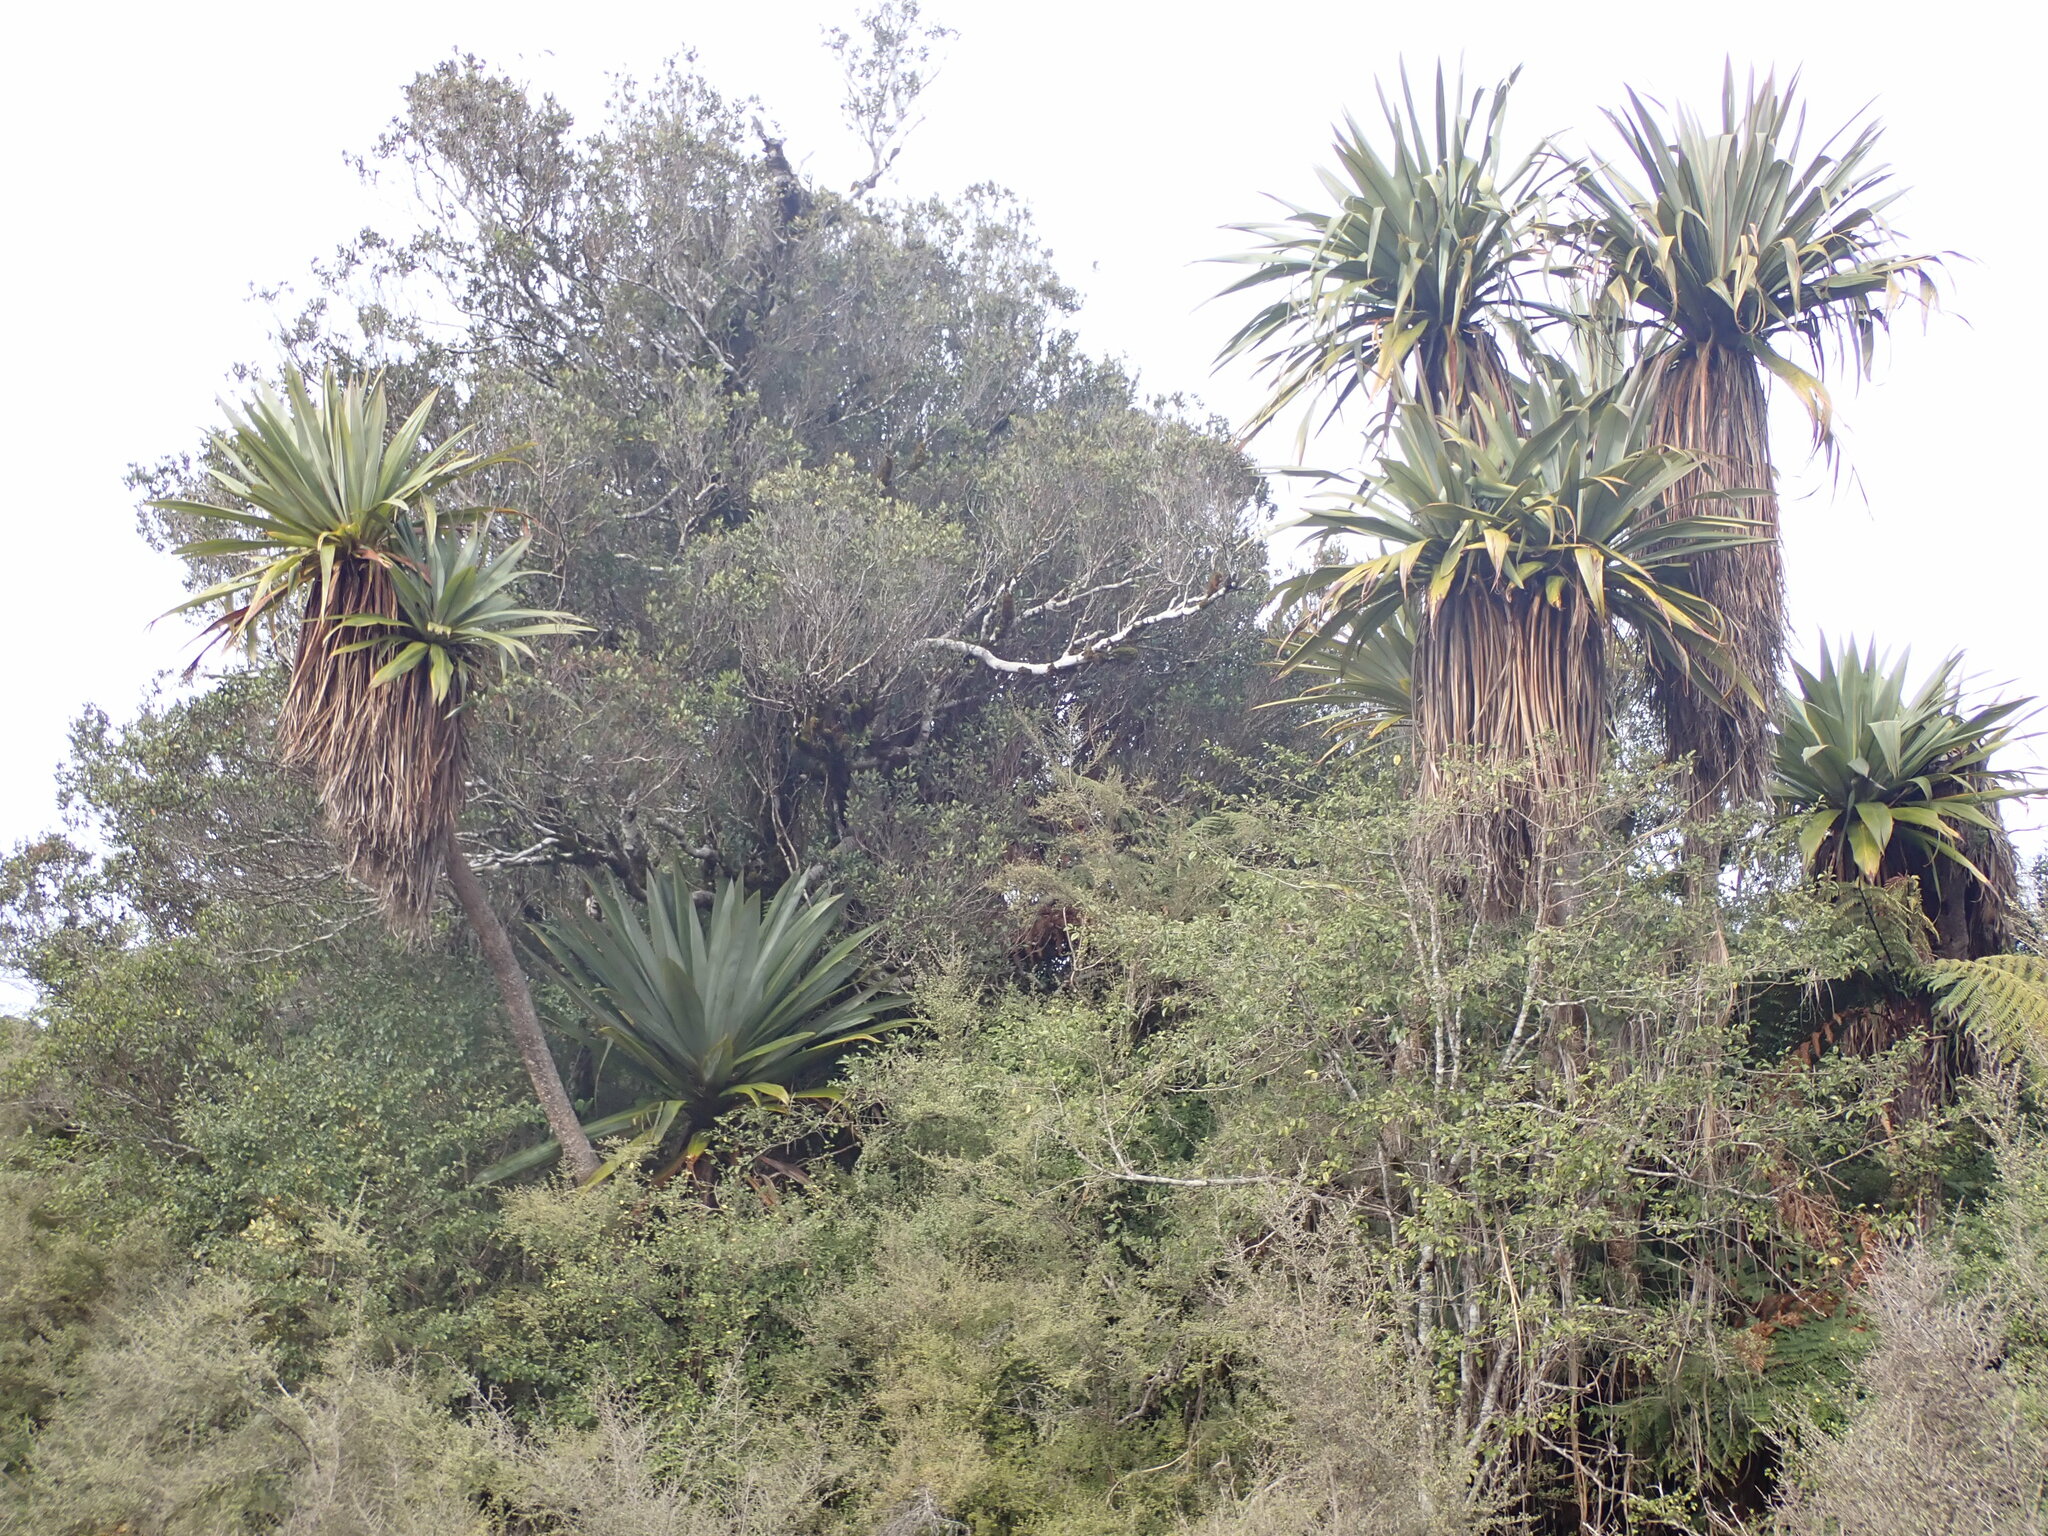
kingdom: Plantae
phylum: Tracheophyta
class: Liliopsida
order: Asparagales
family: Asparagaceae
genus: Cordyline
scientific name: Cordyline indivisa
